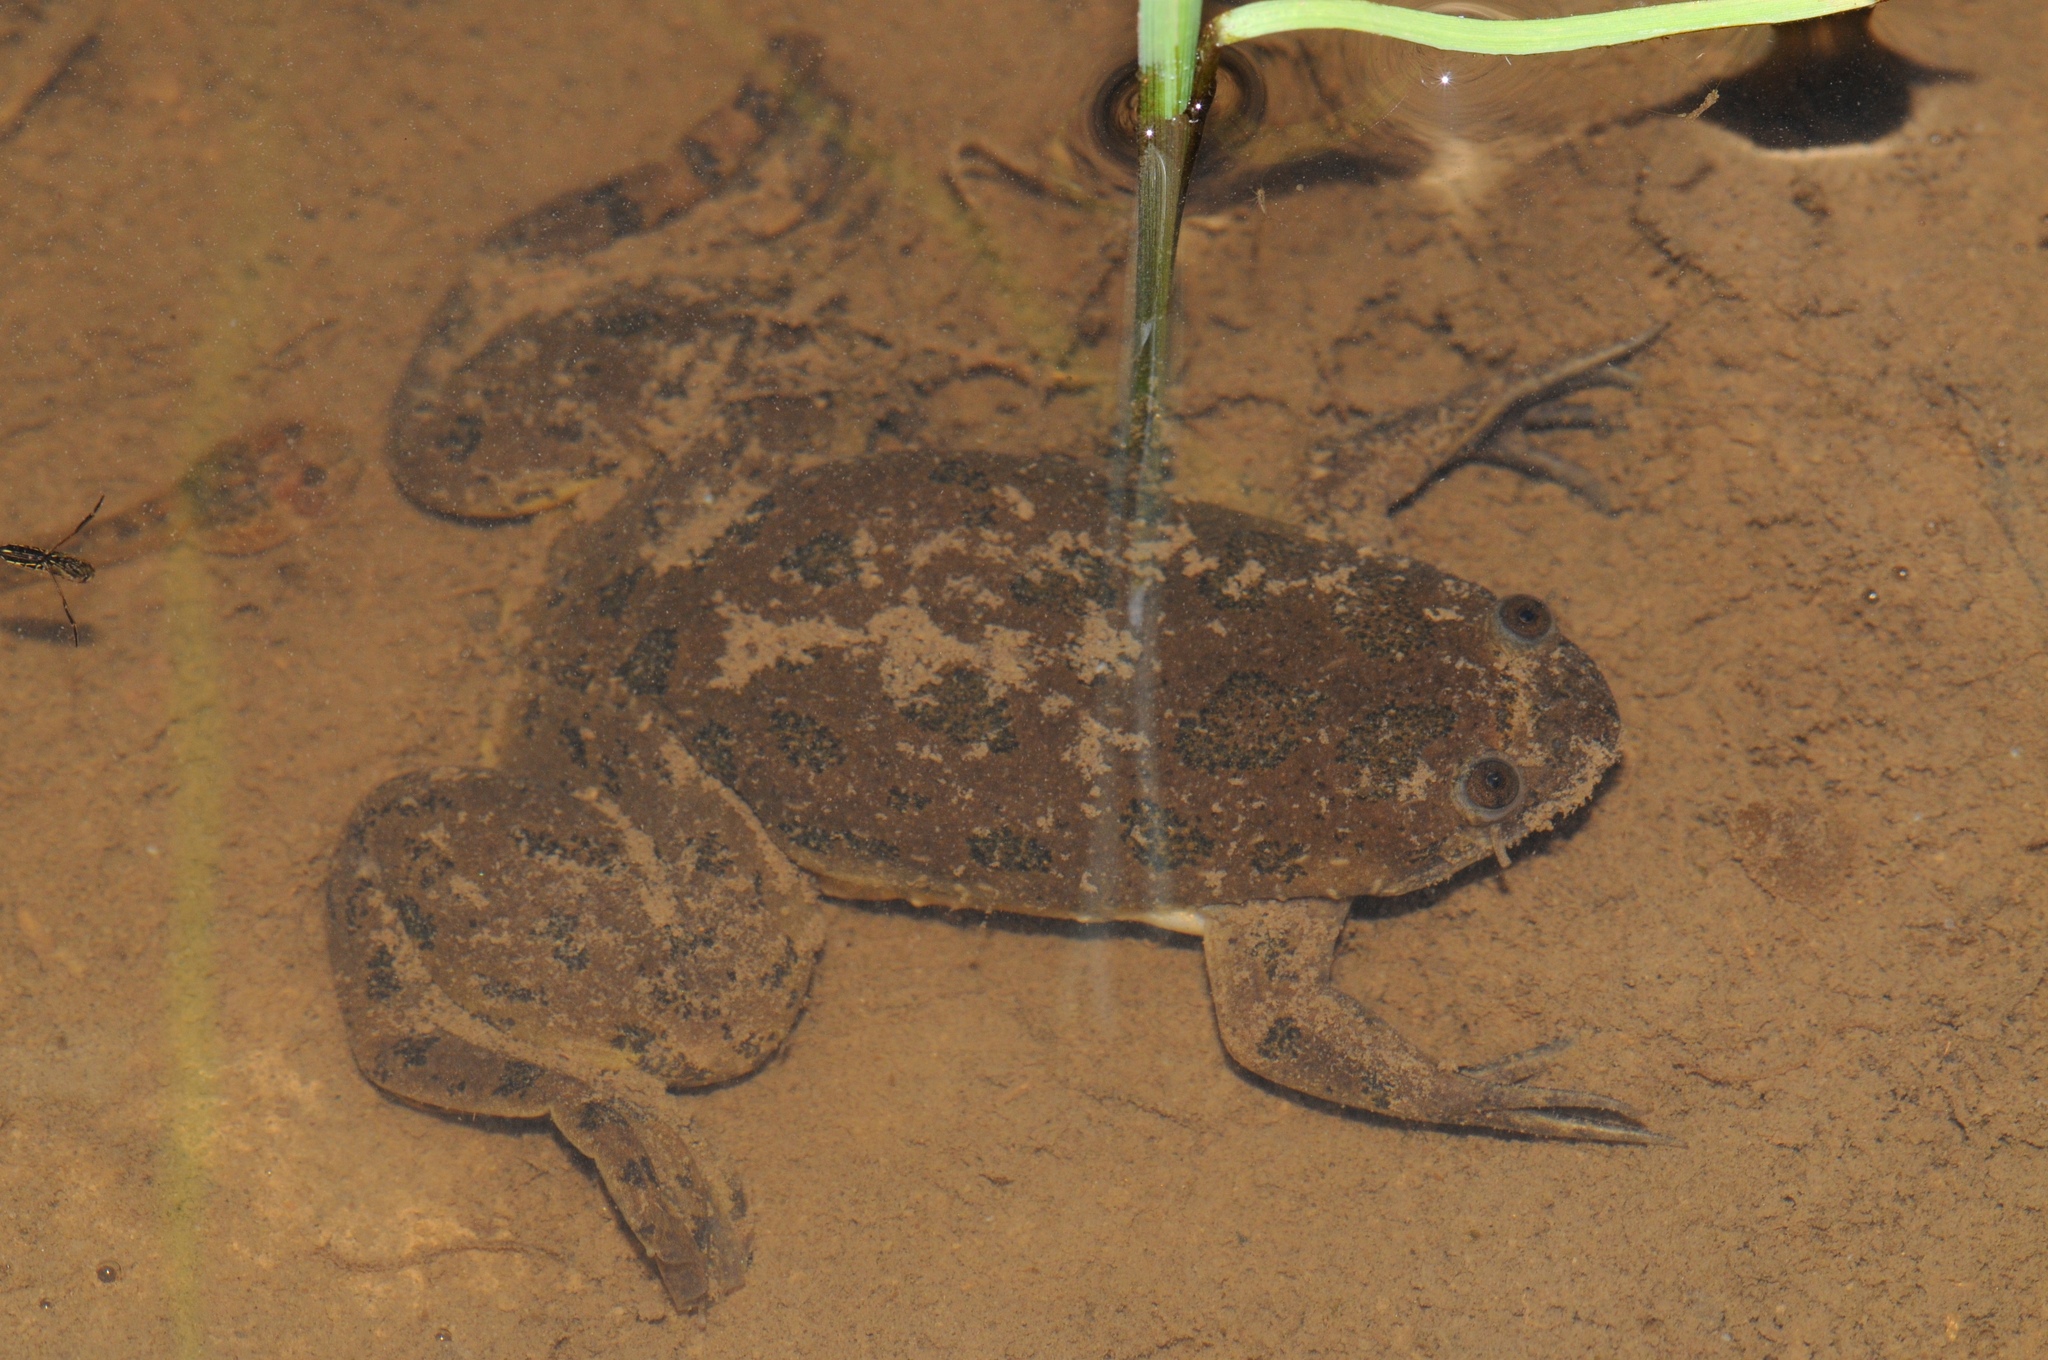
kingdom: Animalia
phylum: Chordata
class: Amphibia
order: Anura
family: Pipidae
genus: Xenopus
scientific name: Xenopus muelleri
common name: Muller's clawed frog
